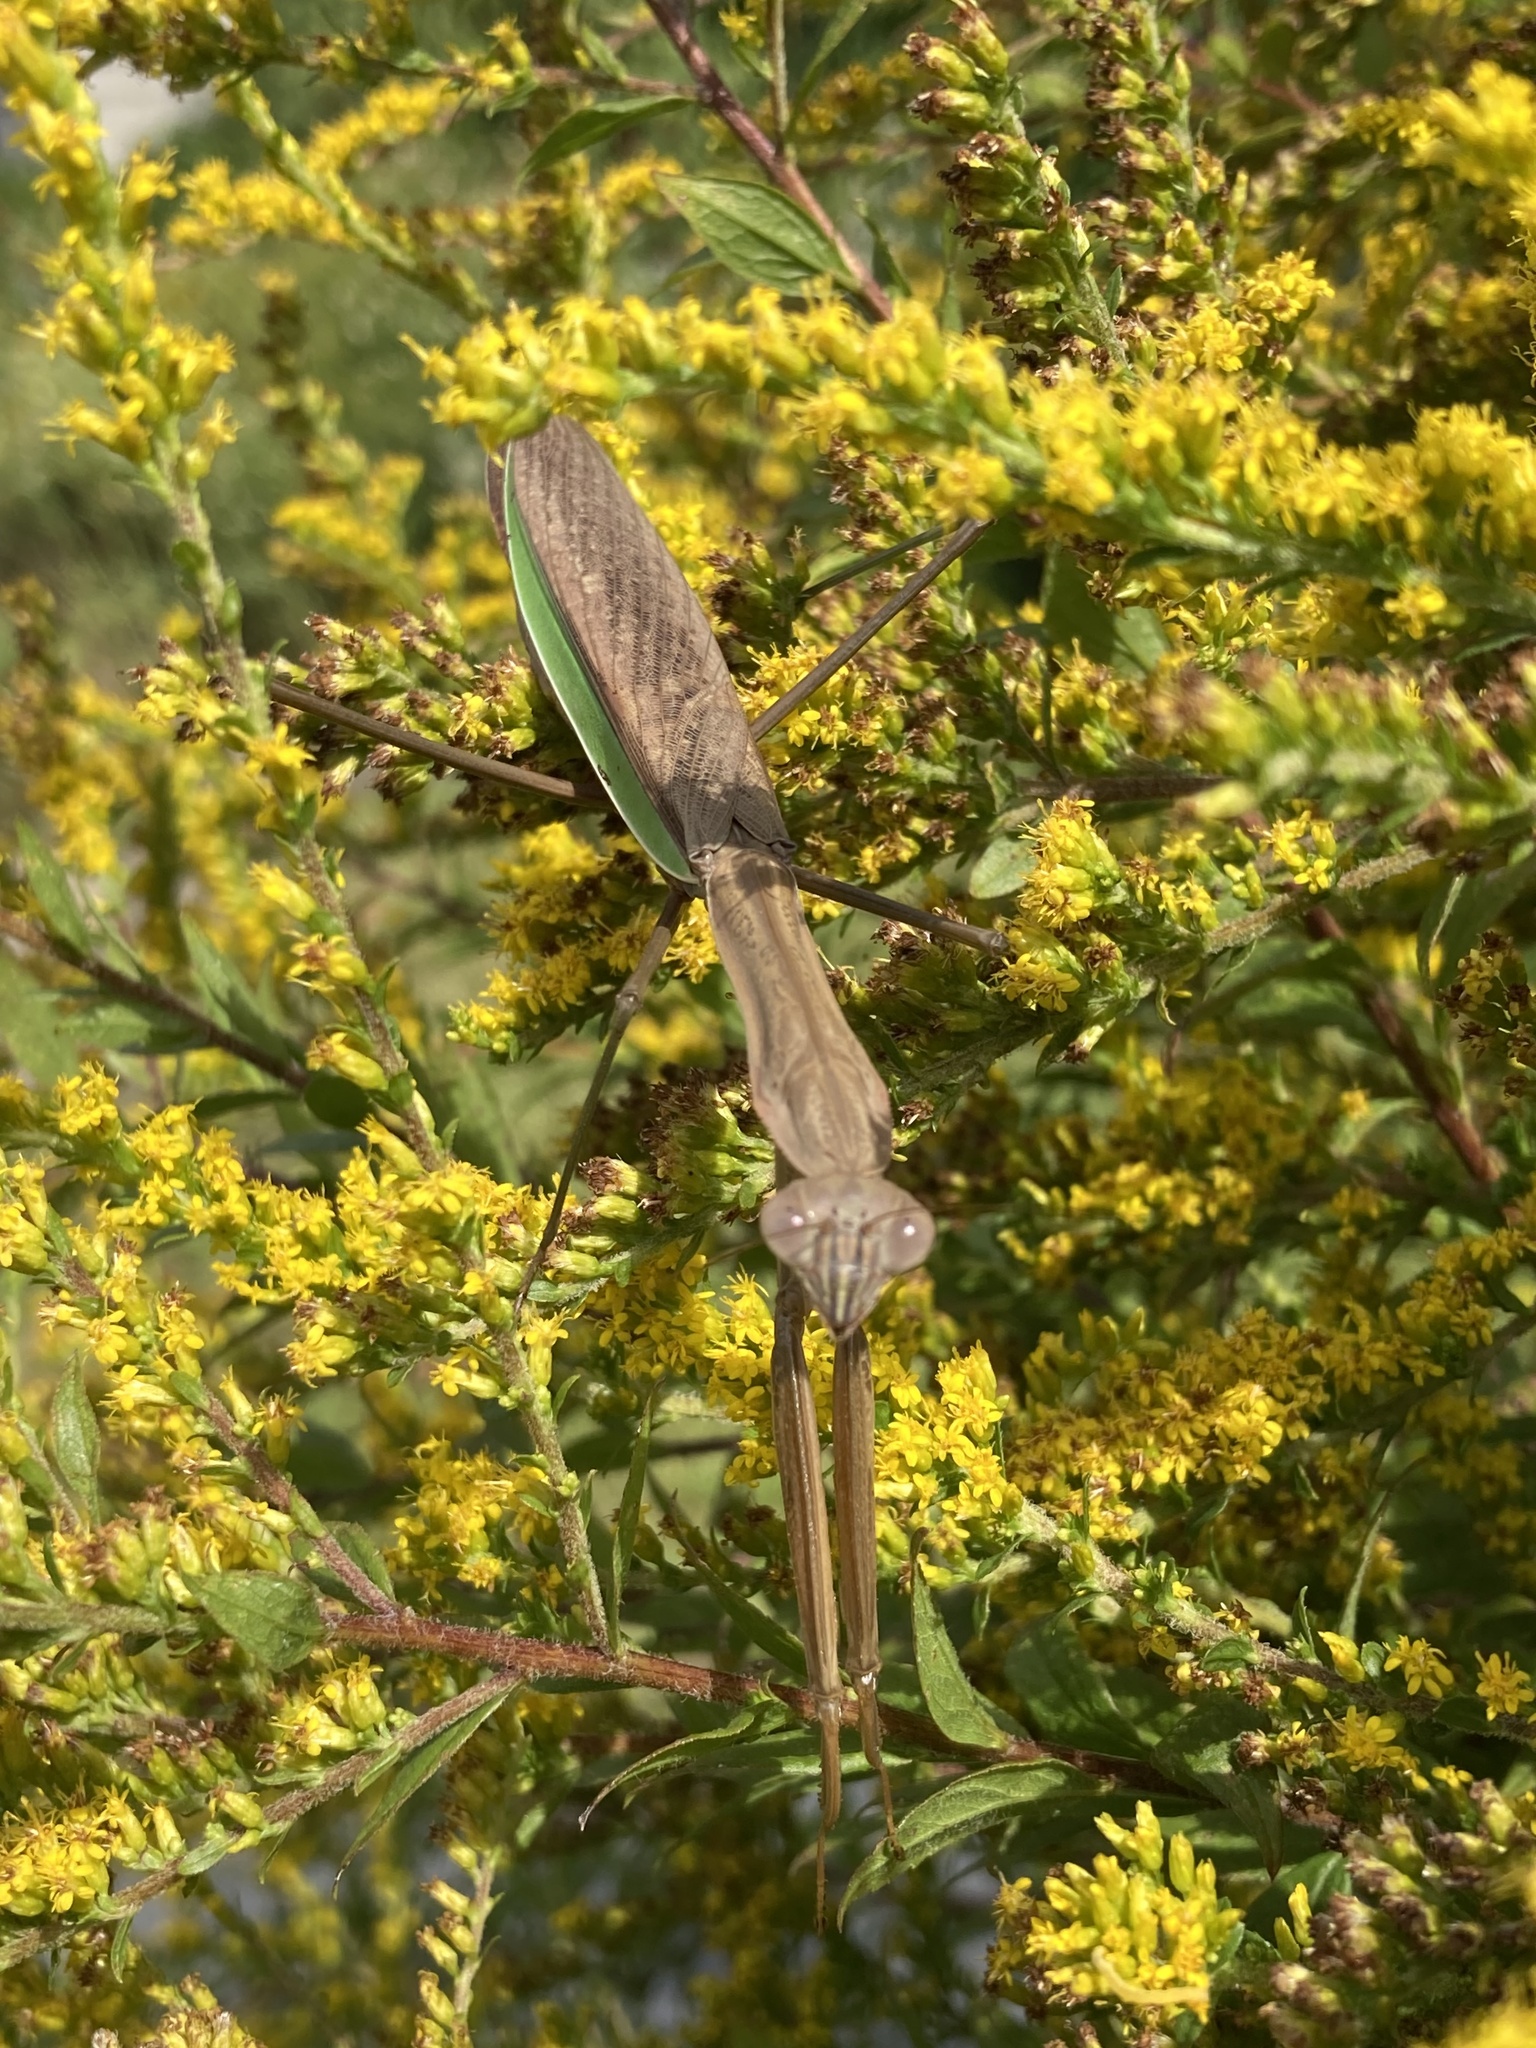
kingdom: Animalia
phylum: Arthropoda
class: Insecta
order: Mantodea
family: Mantidae
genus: Tenodera
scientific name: Tenodera sinensis
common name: Chinese mantis
